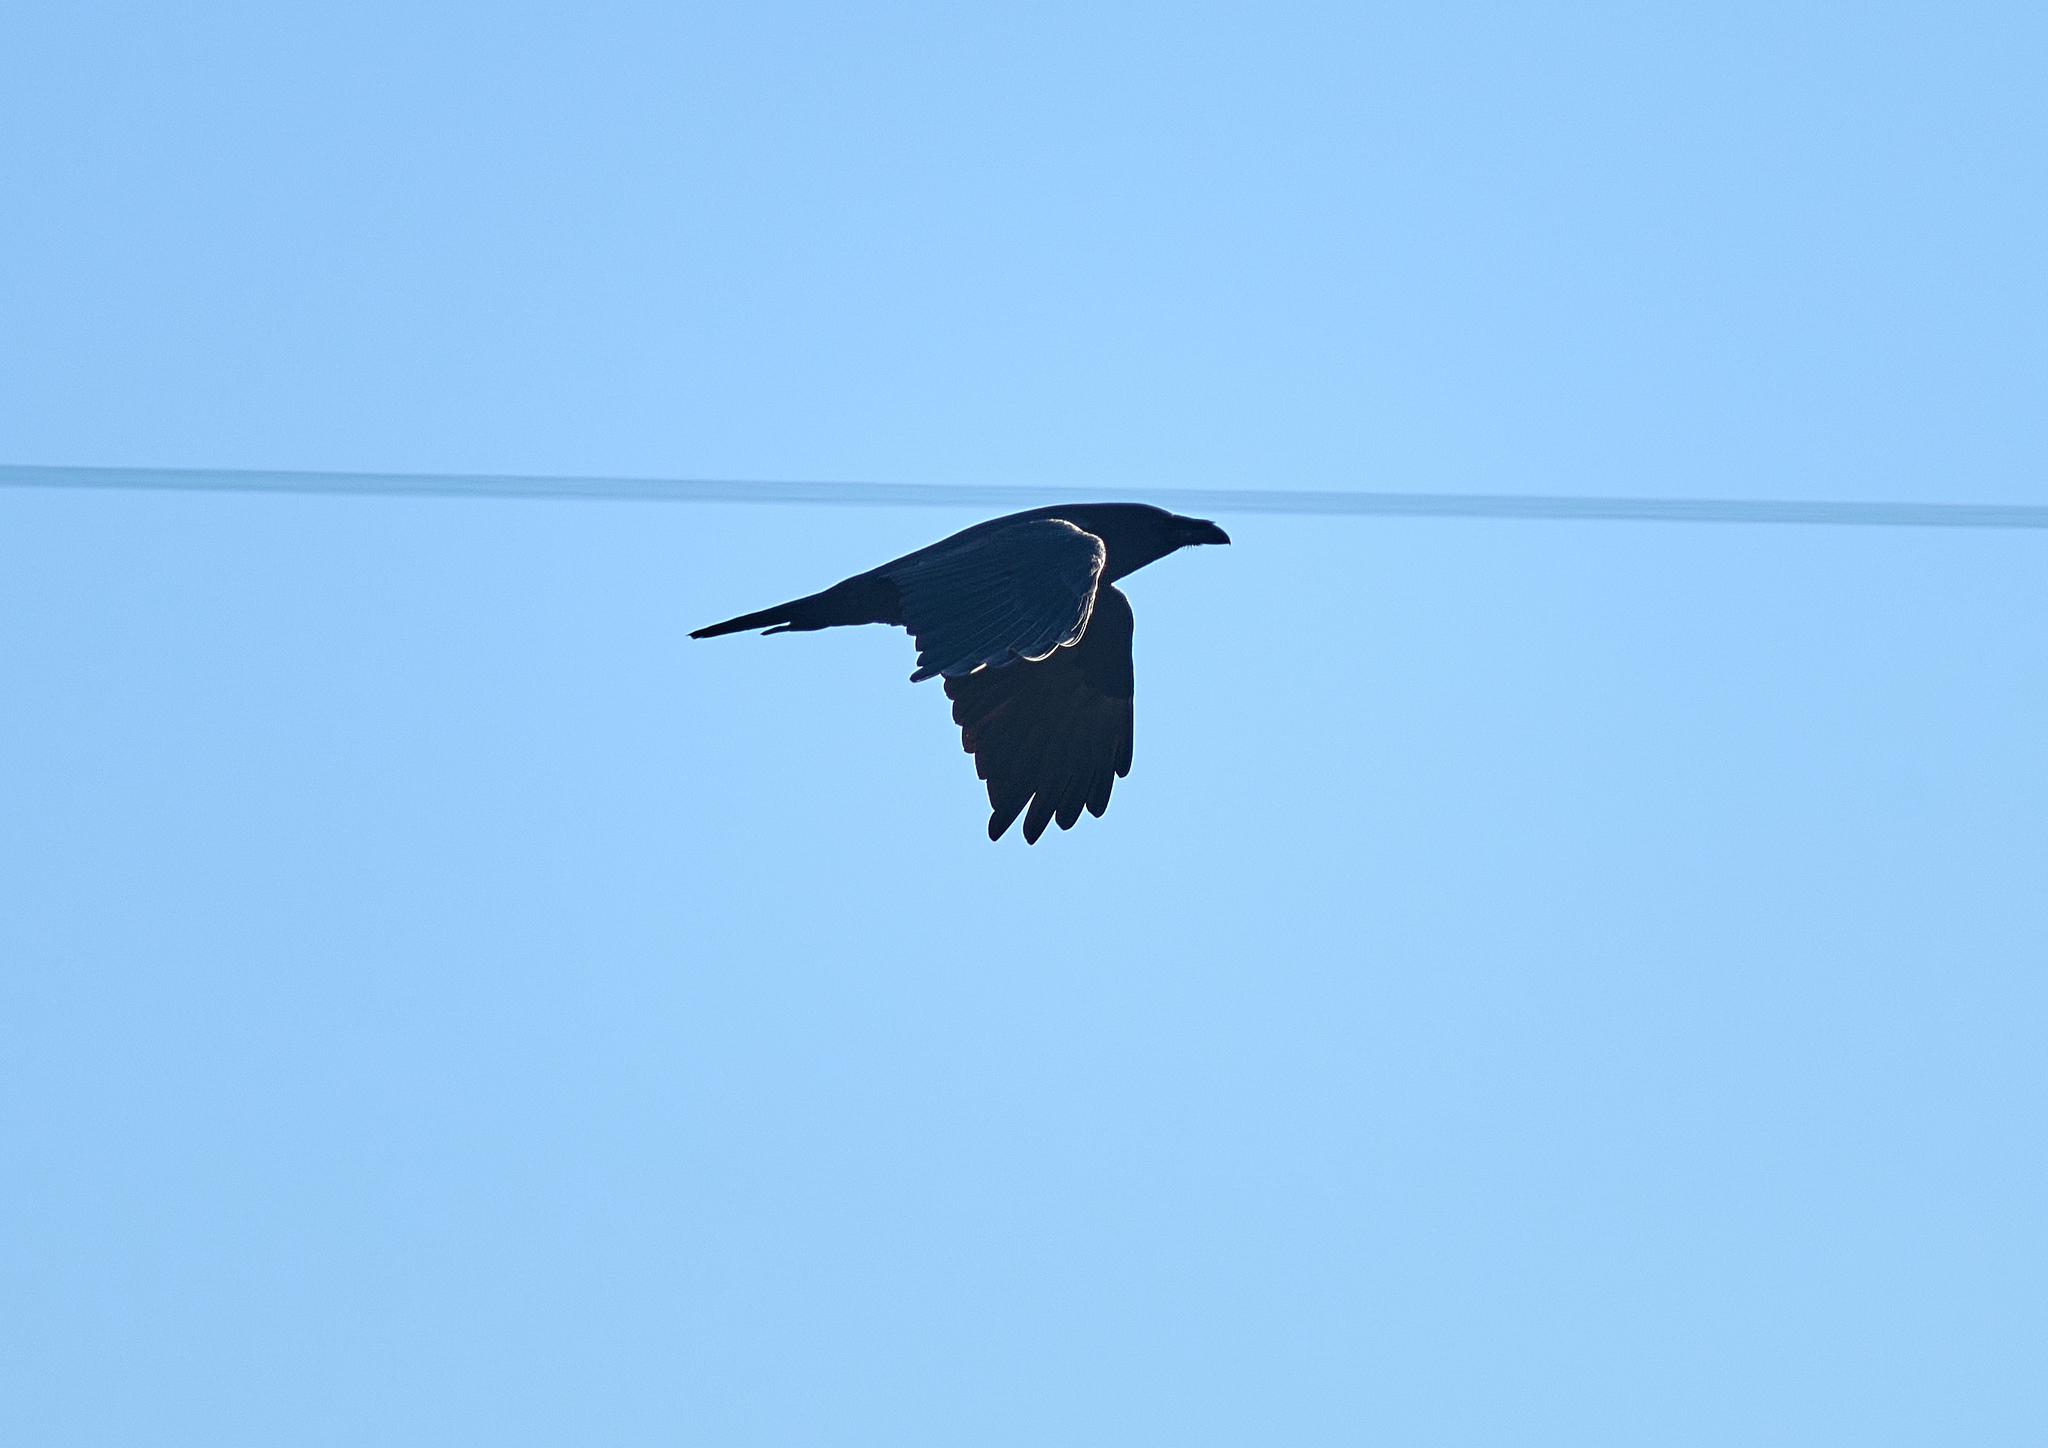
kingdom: Animalia
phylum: Chordata
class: Aves
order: Passeriformes
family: Corvidae
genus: Corvus
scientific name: Corvus corax
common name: Common raven
